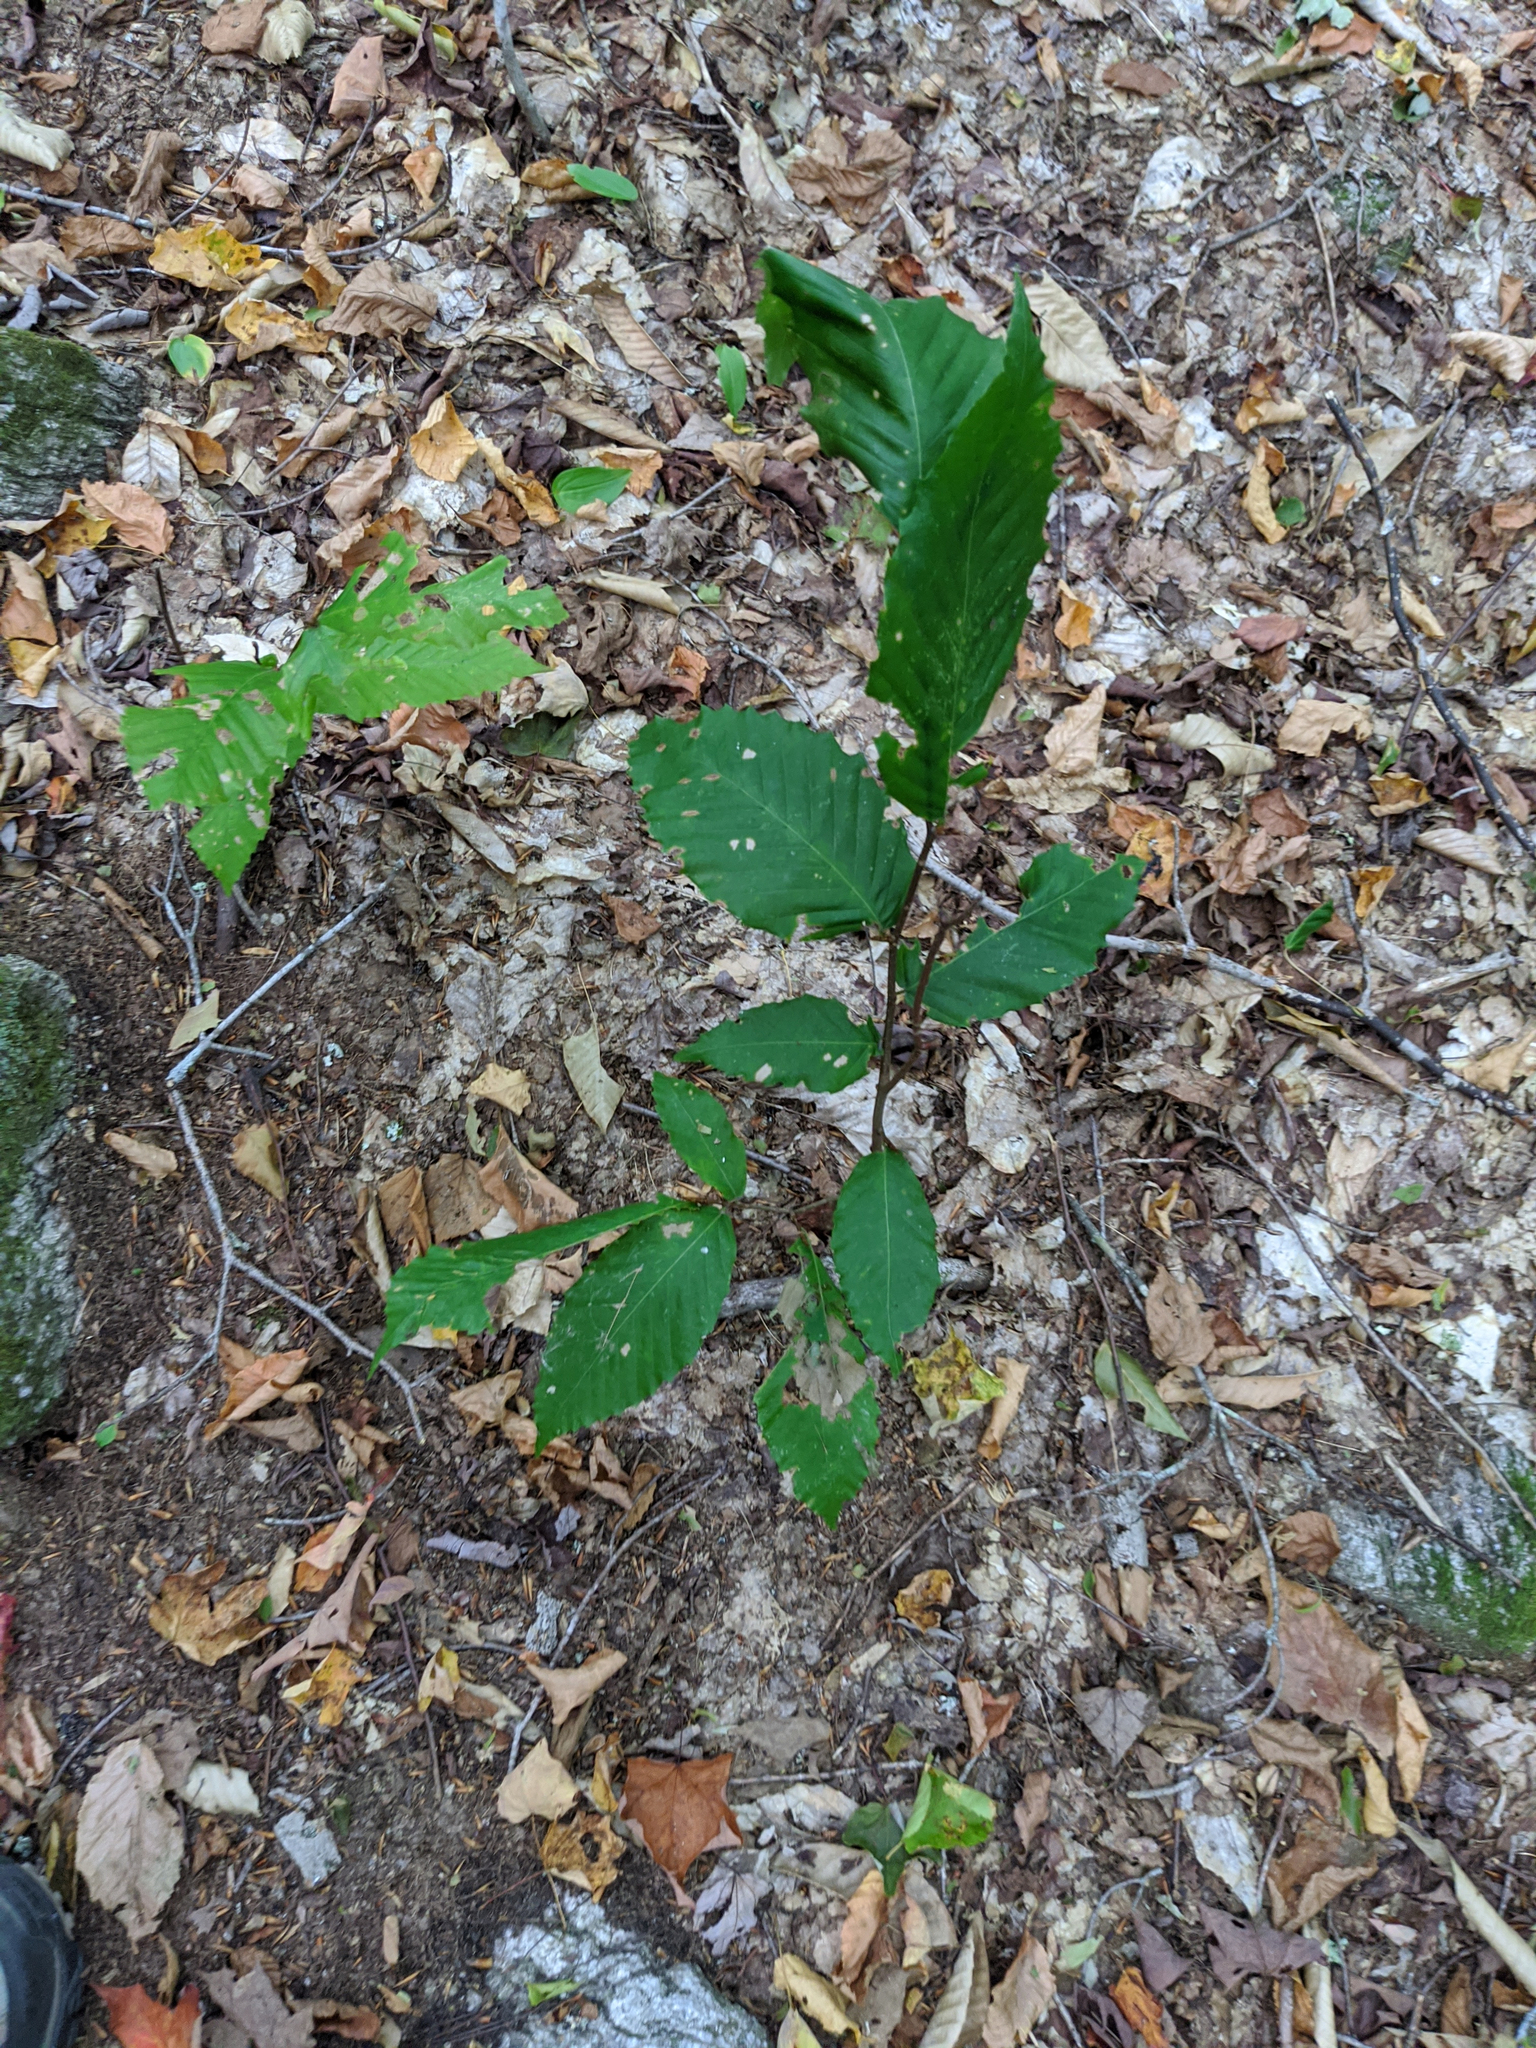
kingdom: Plantae
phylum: Tracheophyta
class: Magnoliopsida
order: Fagales
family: Fagaceae
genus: Fagus
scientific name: Fagus grandifolia
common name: American beech
